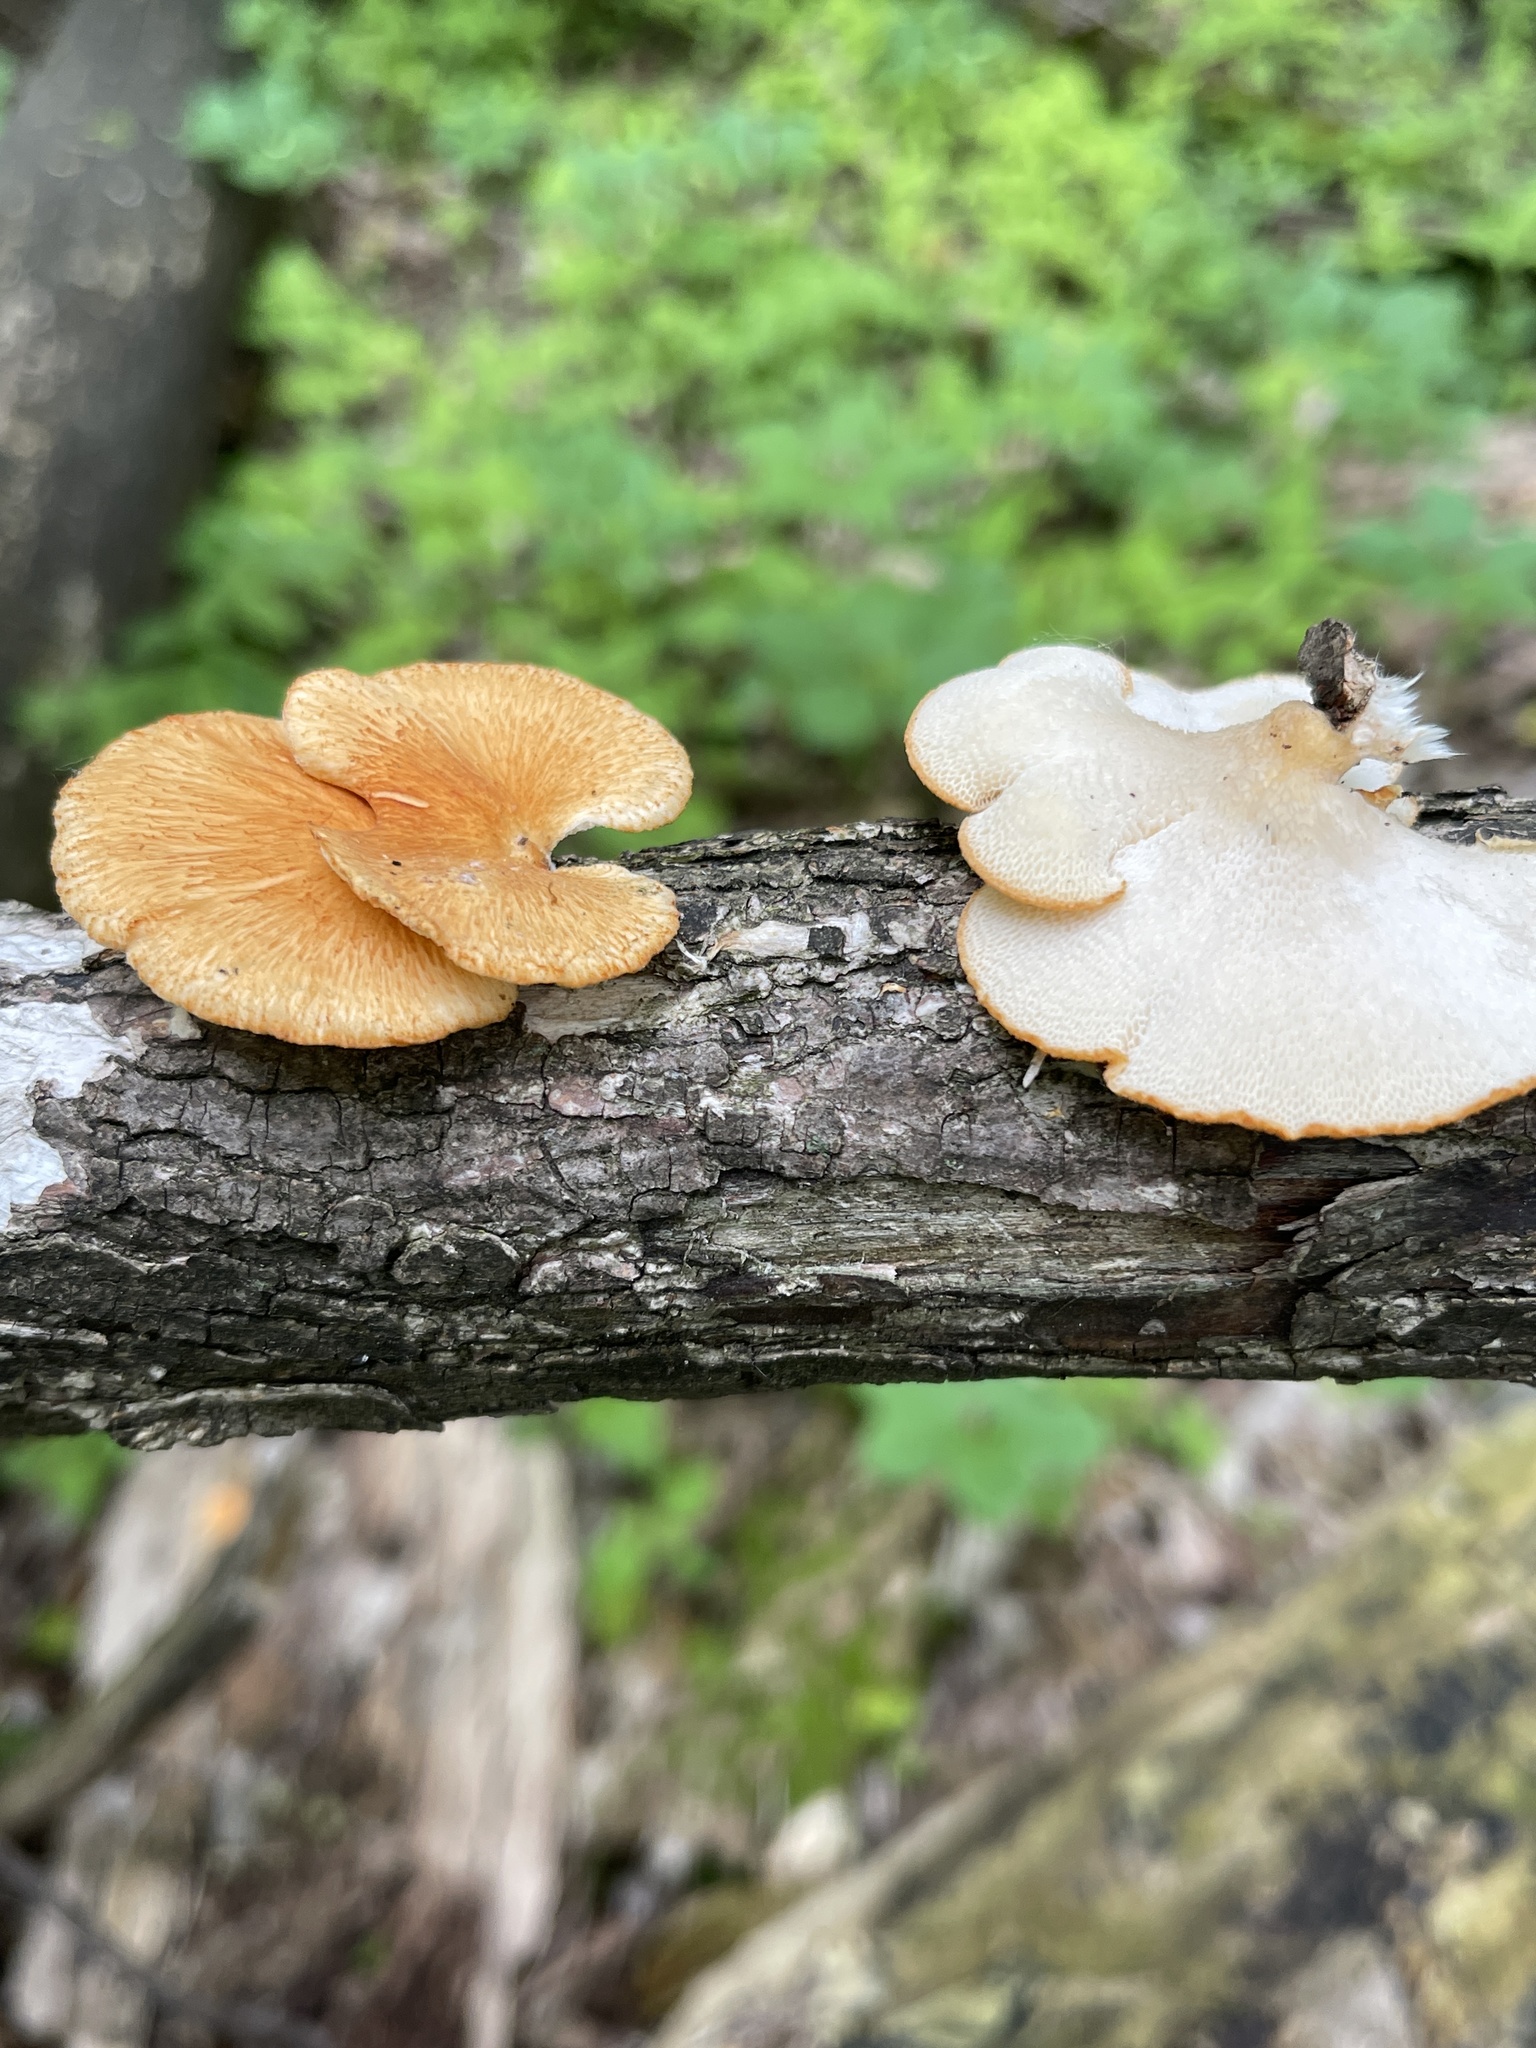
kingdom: Fungi
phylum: Basidiomycota
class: Agaricomycetes
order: Polyporales
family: Polyporaceae
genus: Neofavolus
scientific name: Neofavolus alveolaris
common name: Hexagonal-pored polypore
